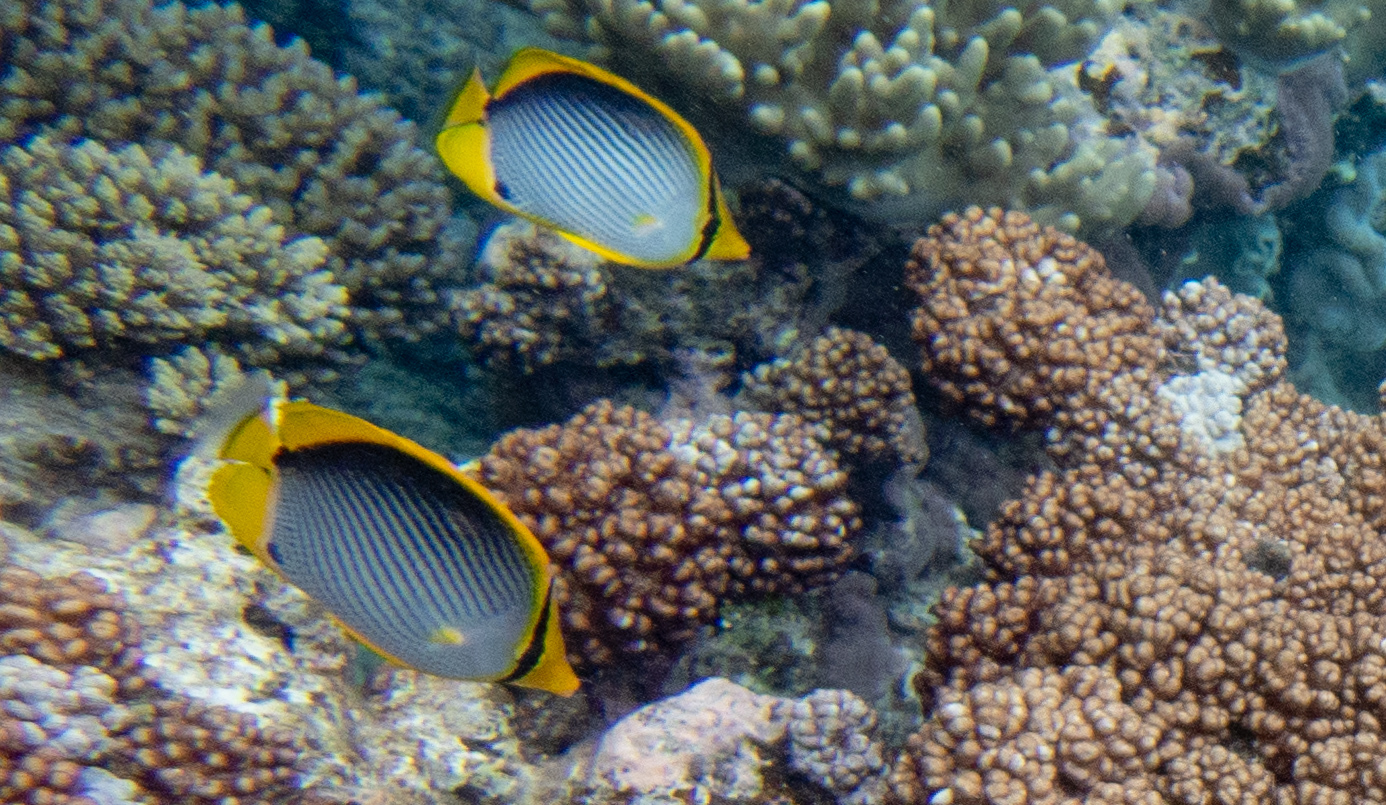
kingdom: Animalia
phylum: Chordata
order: Perciformes
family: Chaetodontidae
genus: Chaetodon
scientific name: Chaetodon melannotus
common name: Blackback butterflyfish
